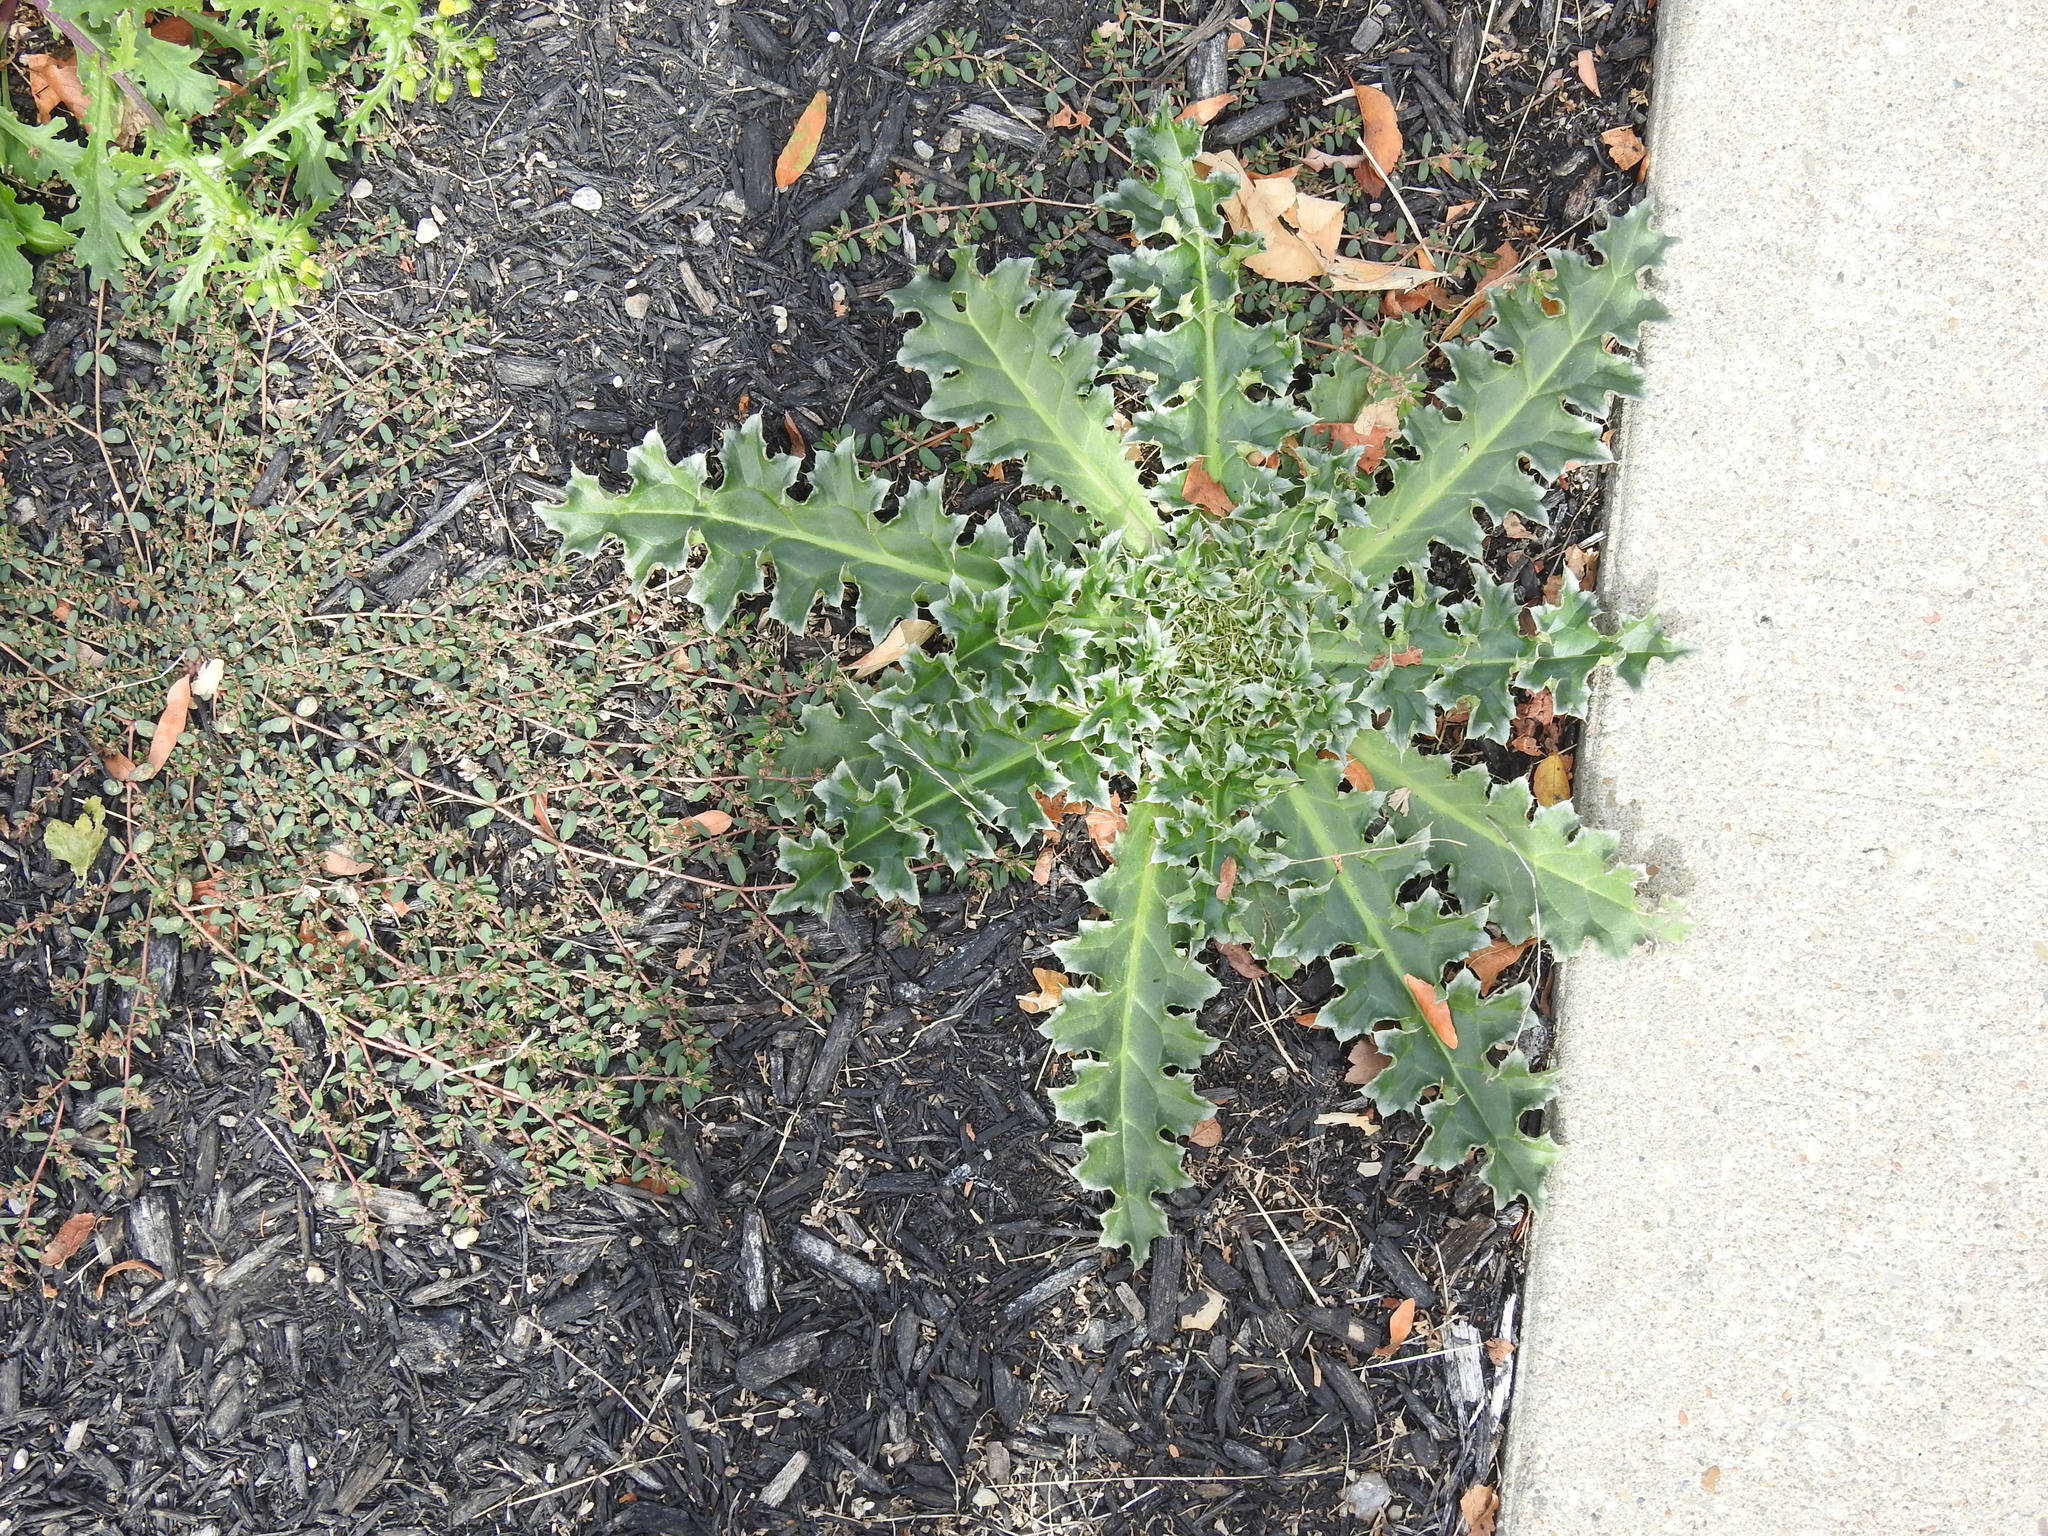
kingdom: Plantae
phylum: Tracheophyta
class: Magnoliopsida
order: Asterales
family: Asteraceae
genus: Carduus
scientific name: Carduus nutans
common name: Musk thistle
